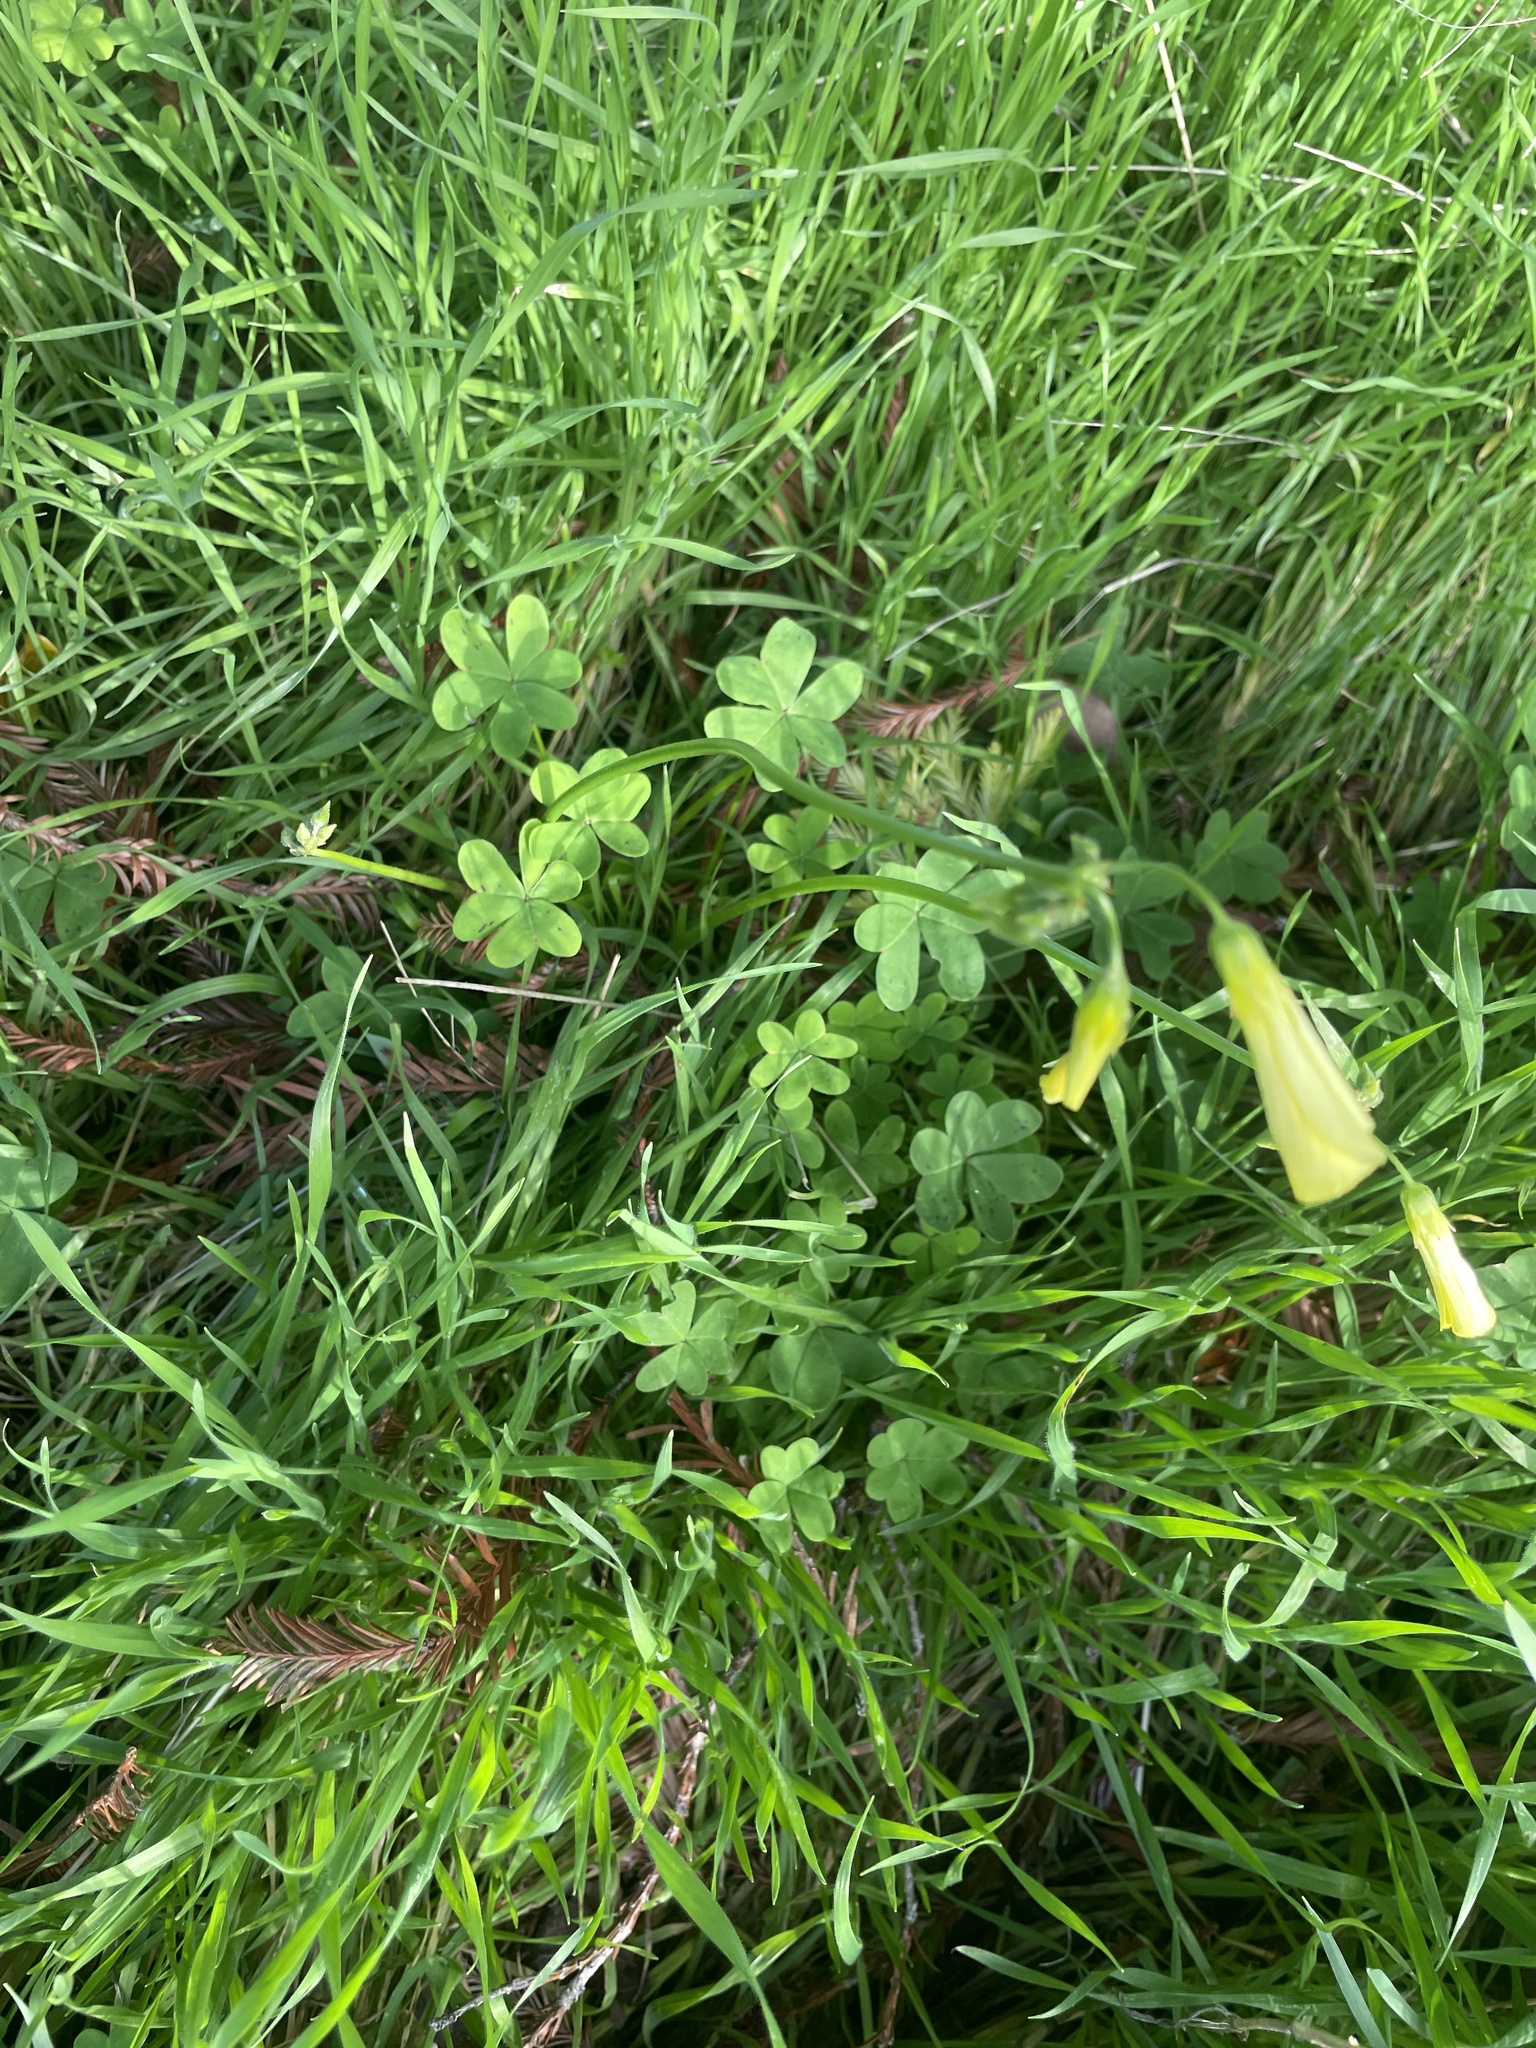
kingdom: Plantae
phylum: Tracheophyta
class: Magnoliopsida
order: Oxalidales
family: Oxalidaceae
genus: Oxalis
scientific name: Oxalis pes-caprae
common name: Bermuda-buttercup
